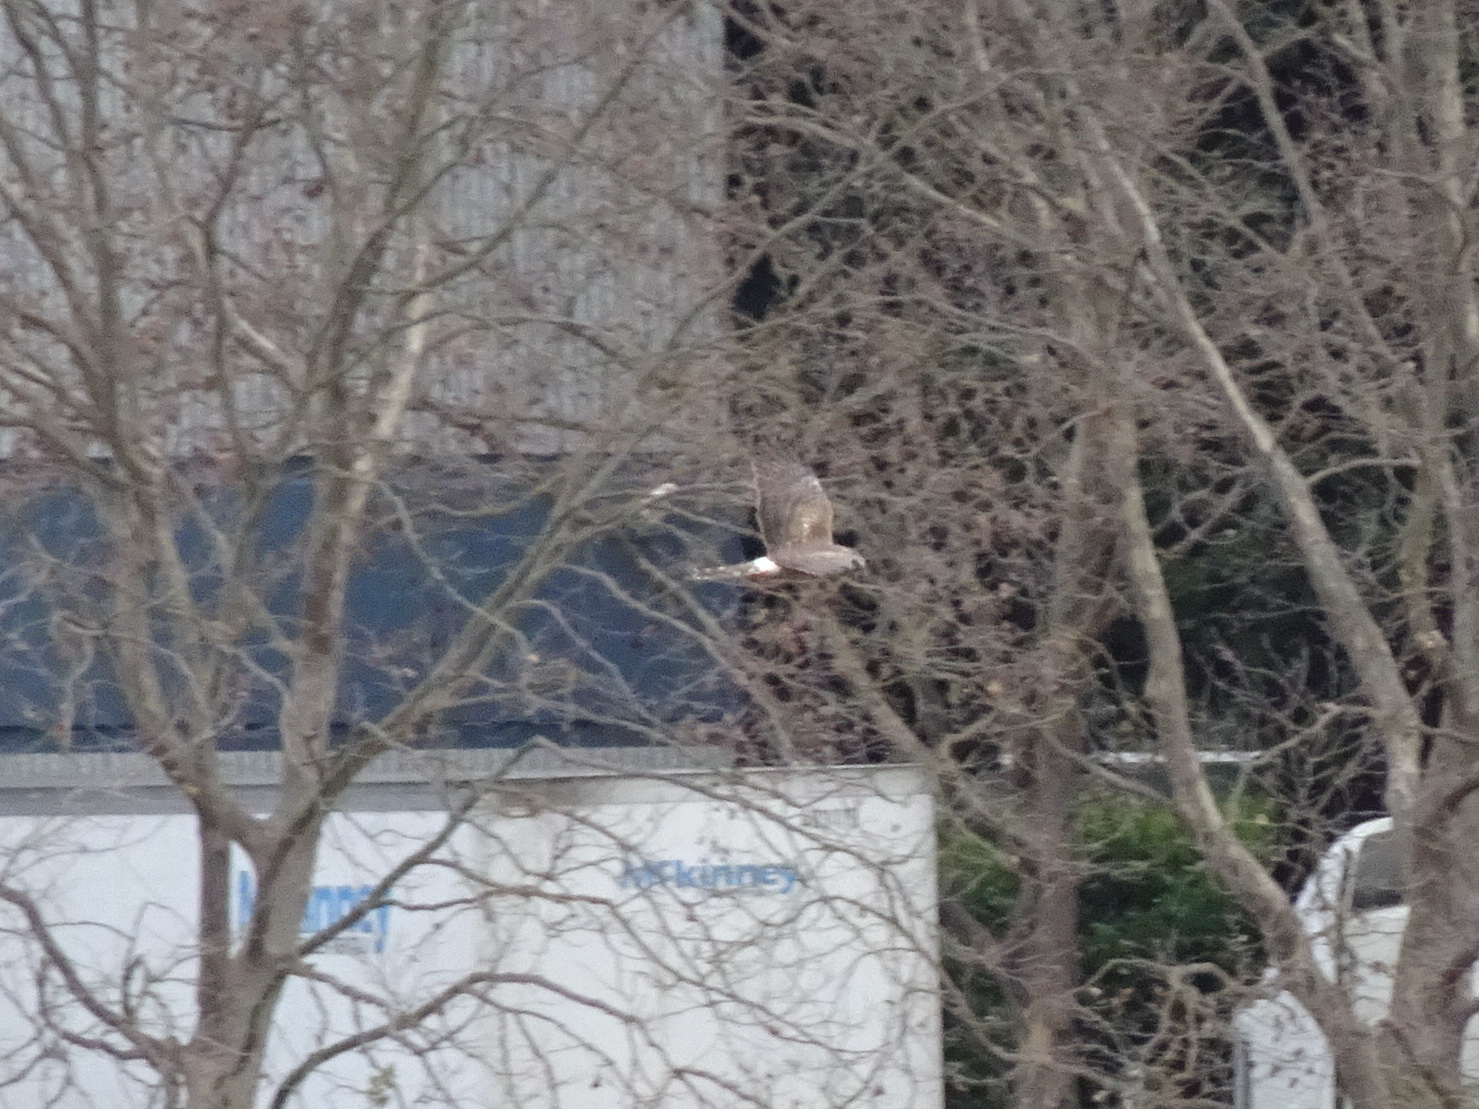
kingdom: Animalia
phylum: Chordata
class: Aves
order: Accipitriformes
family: Accipitridae
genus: Circus
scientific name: Circus cyaneus
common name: Hen harrier
